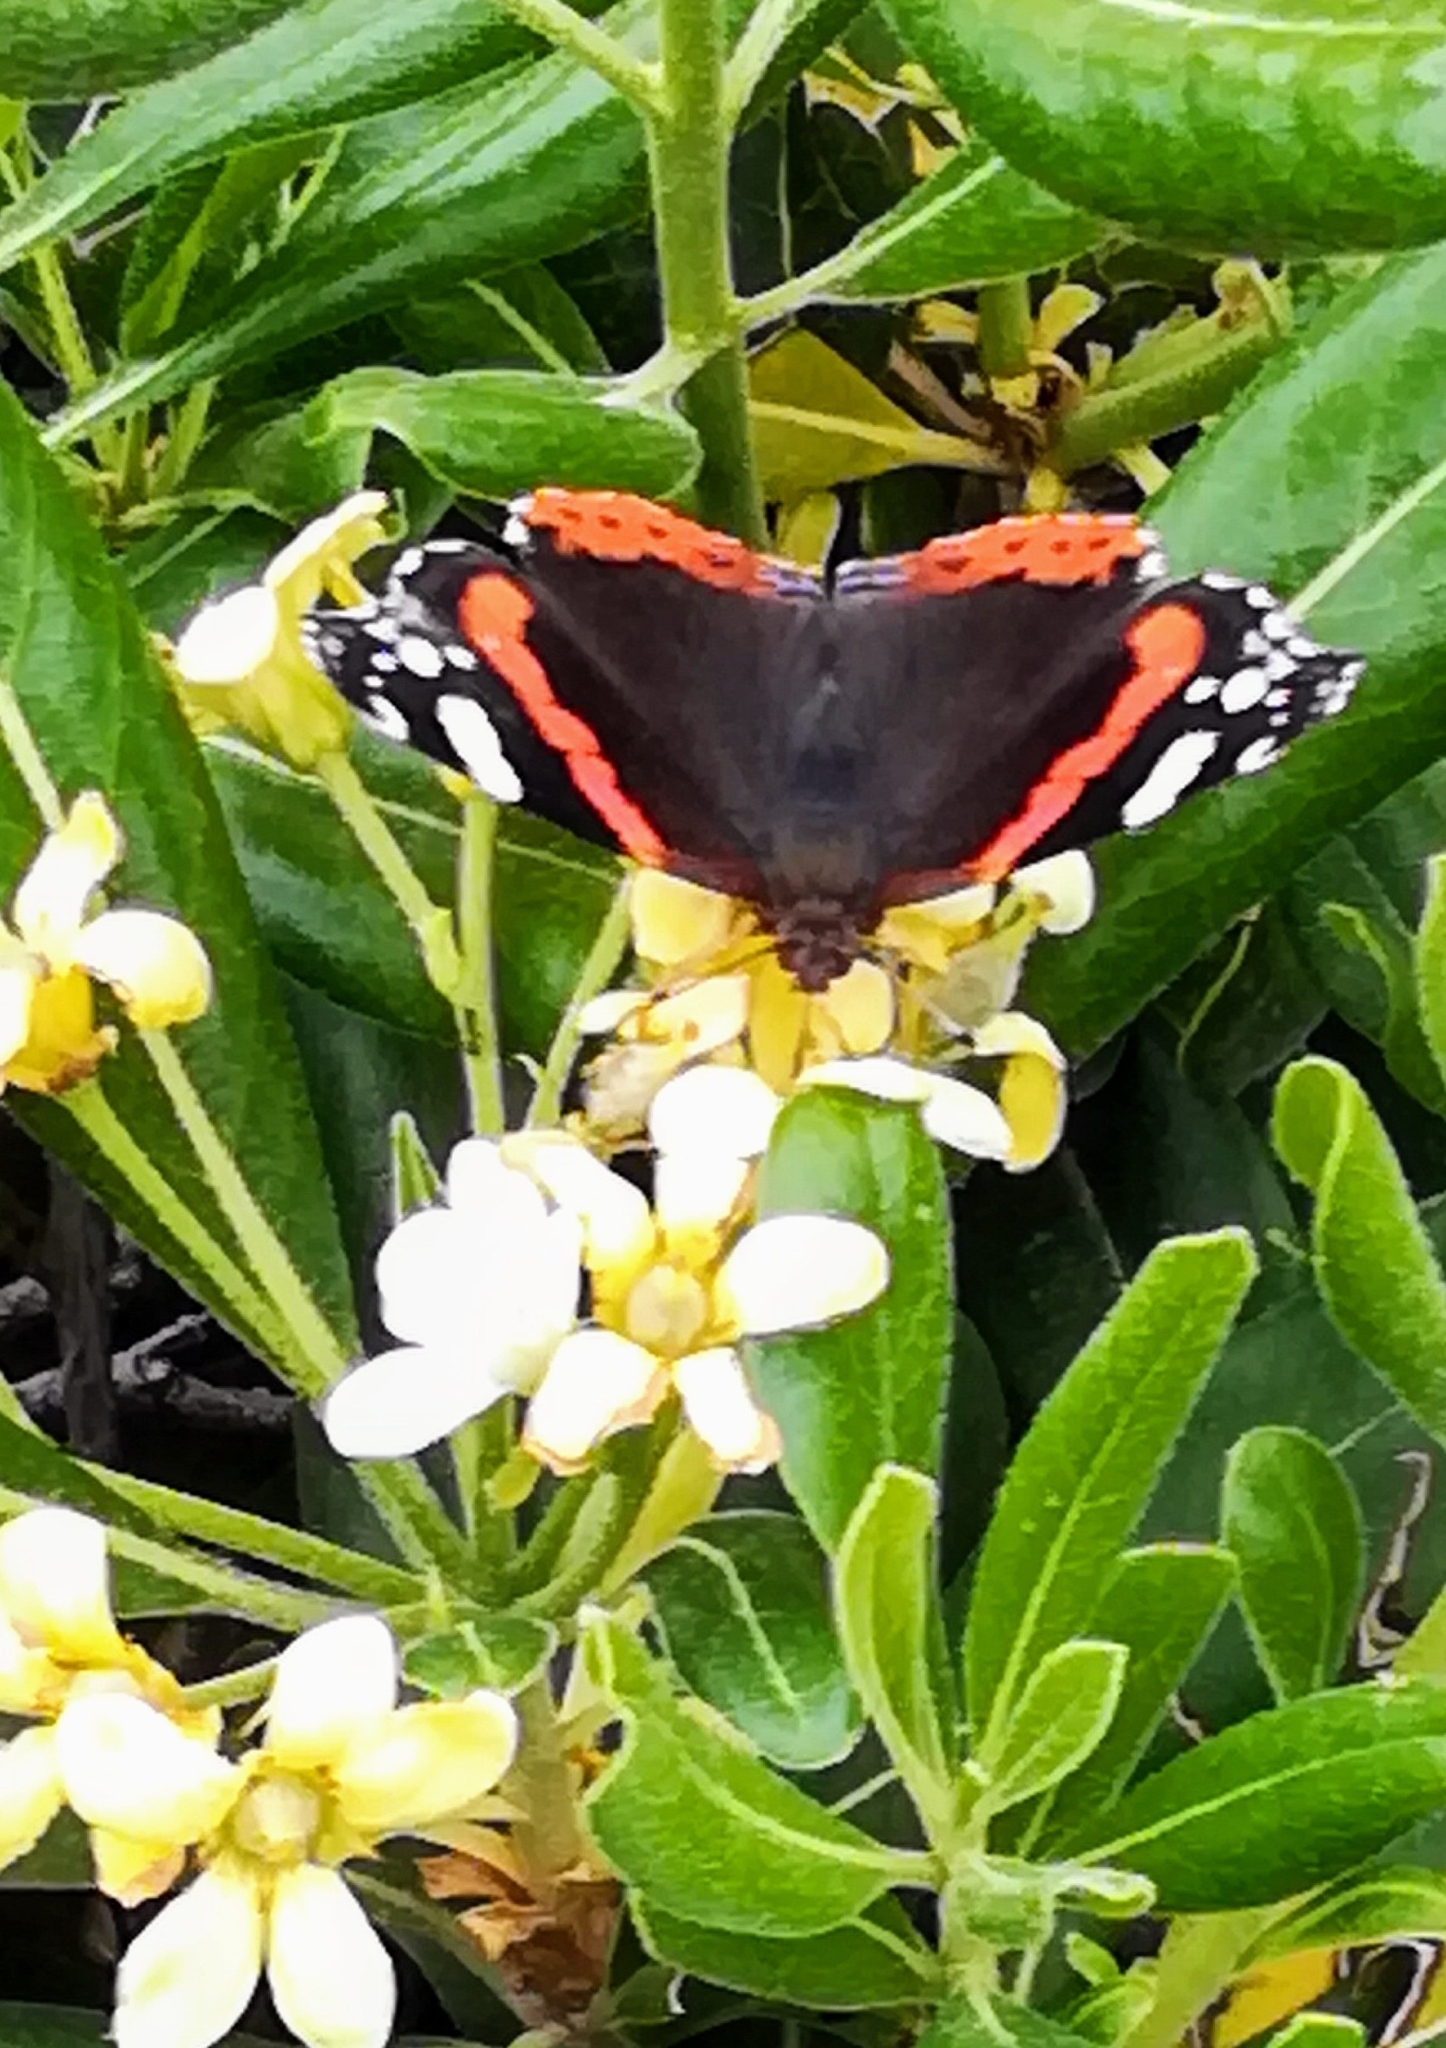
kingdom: Animalia
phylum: Arthropoda
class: Insecta
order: Lepidoptera
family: Nymphalidae
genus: Vanessa
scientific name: Vanessa atalanta
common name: Red admiral
